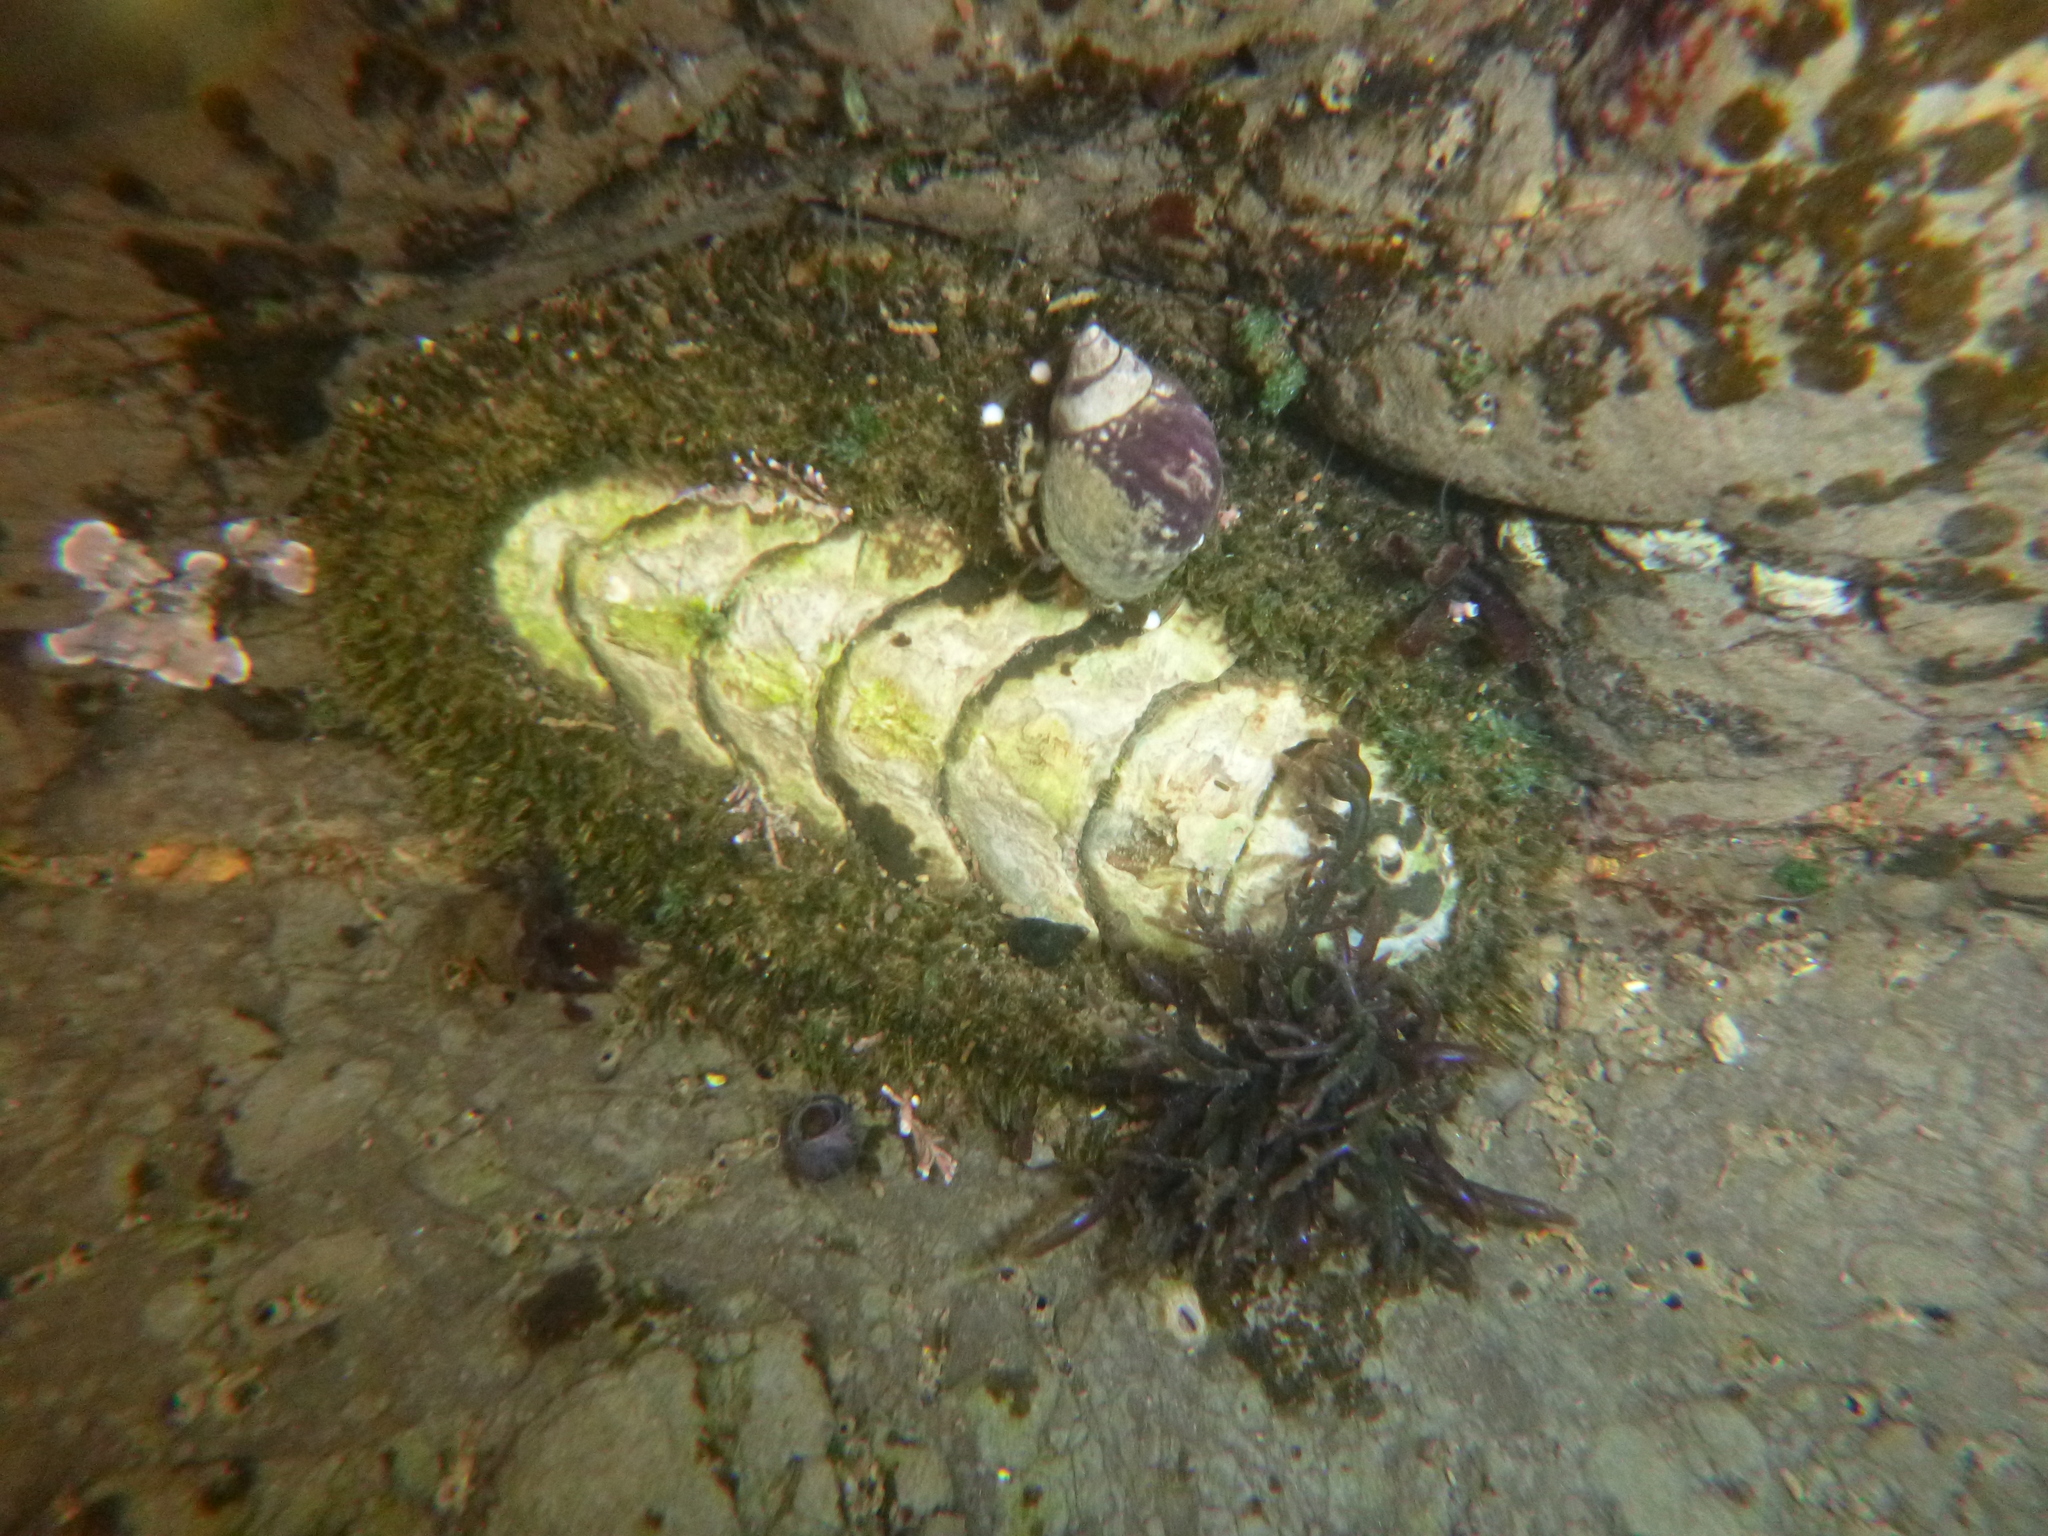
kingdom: Animalia
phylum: Mollusca
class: Polyplacophora
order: Chitonida
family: Mopaliidae
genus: Mopalia
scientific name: Mopalia muscosa
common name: Mossy chiton
